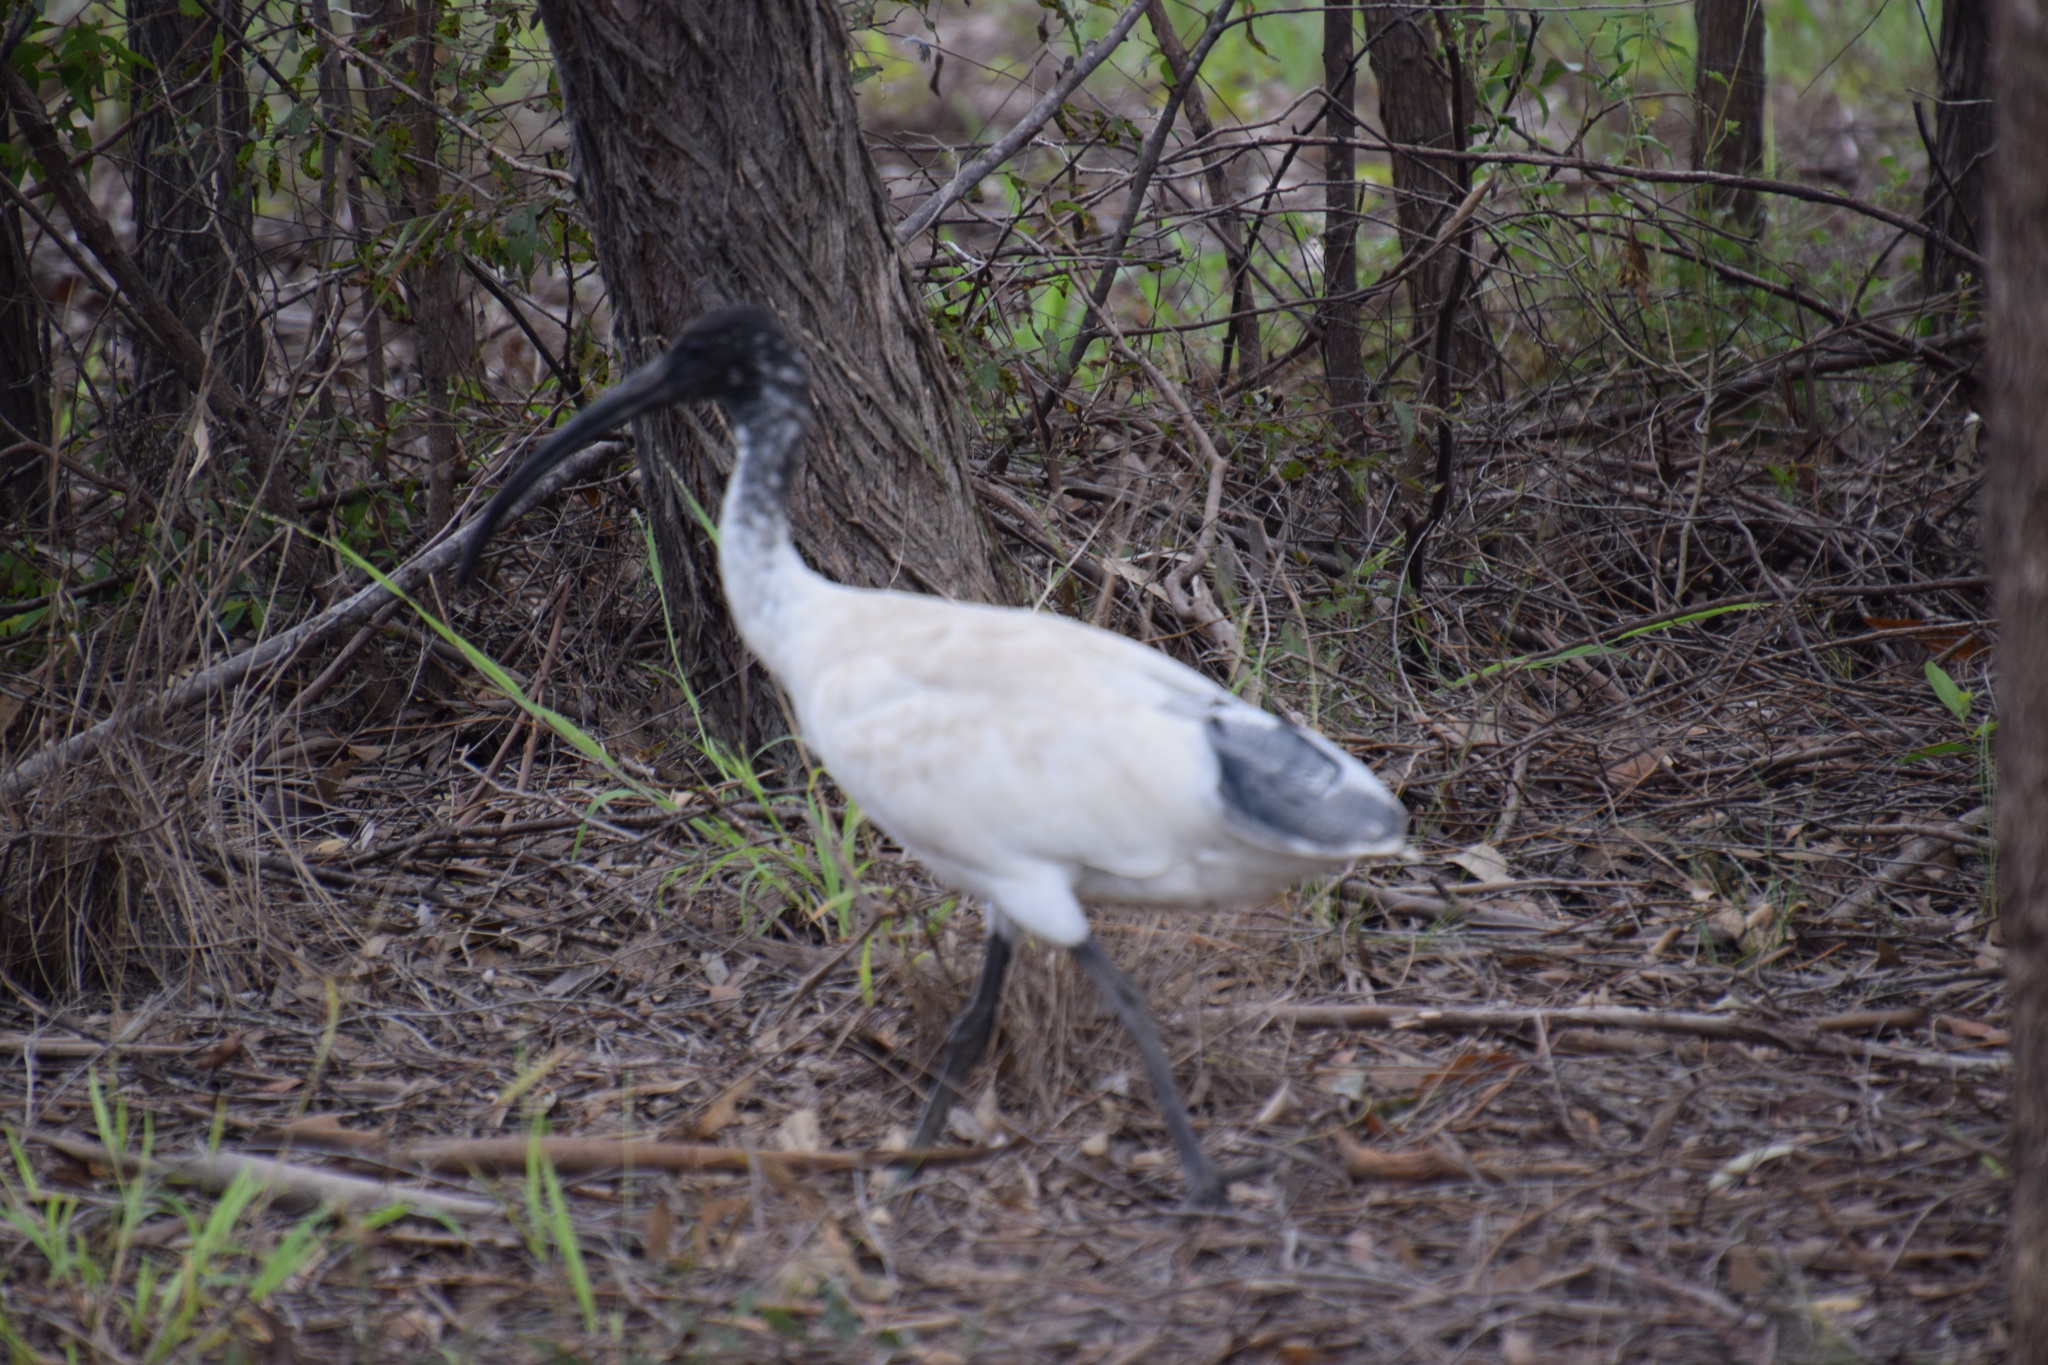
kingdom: Animalia
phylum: Chordata
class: Aves
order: Pelecaniformes
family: Threskiornithidae
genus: Threskiornis
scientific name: Threskiornis molucca
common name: Australian white ibis
